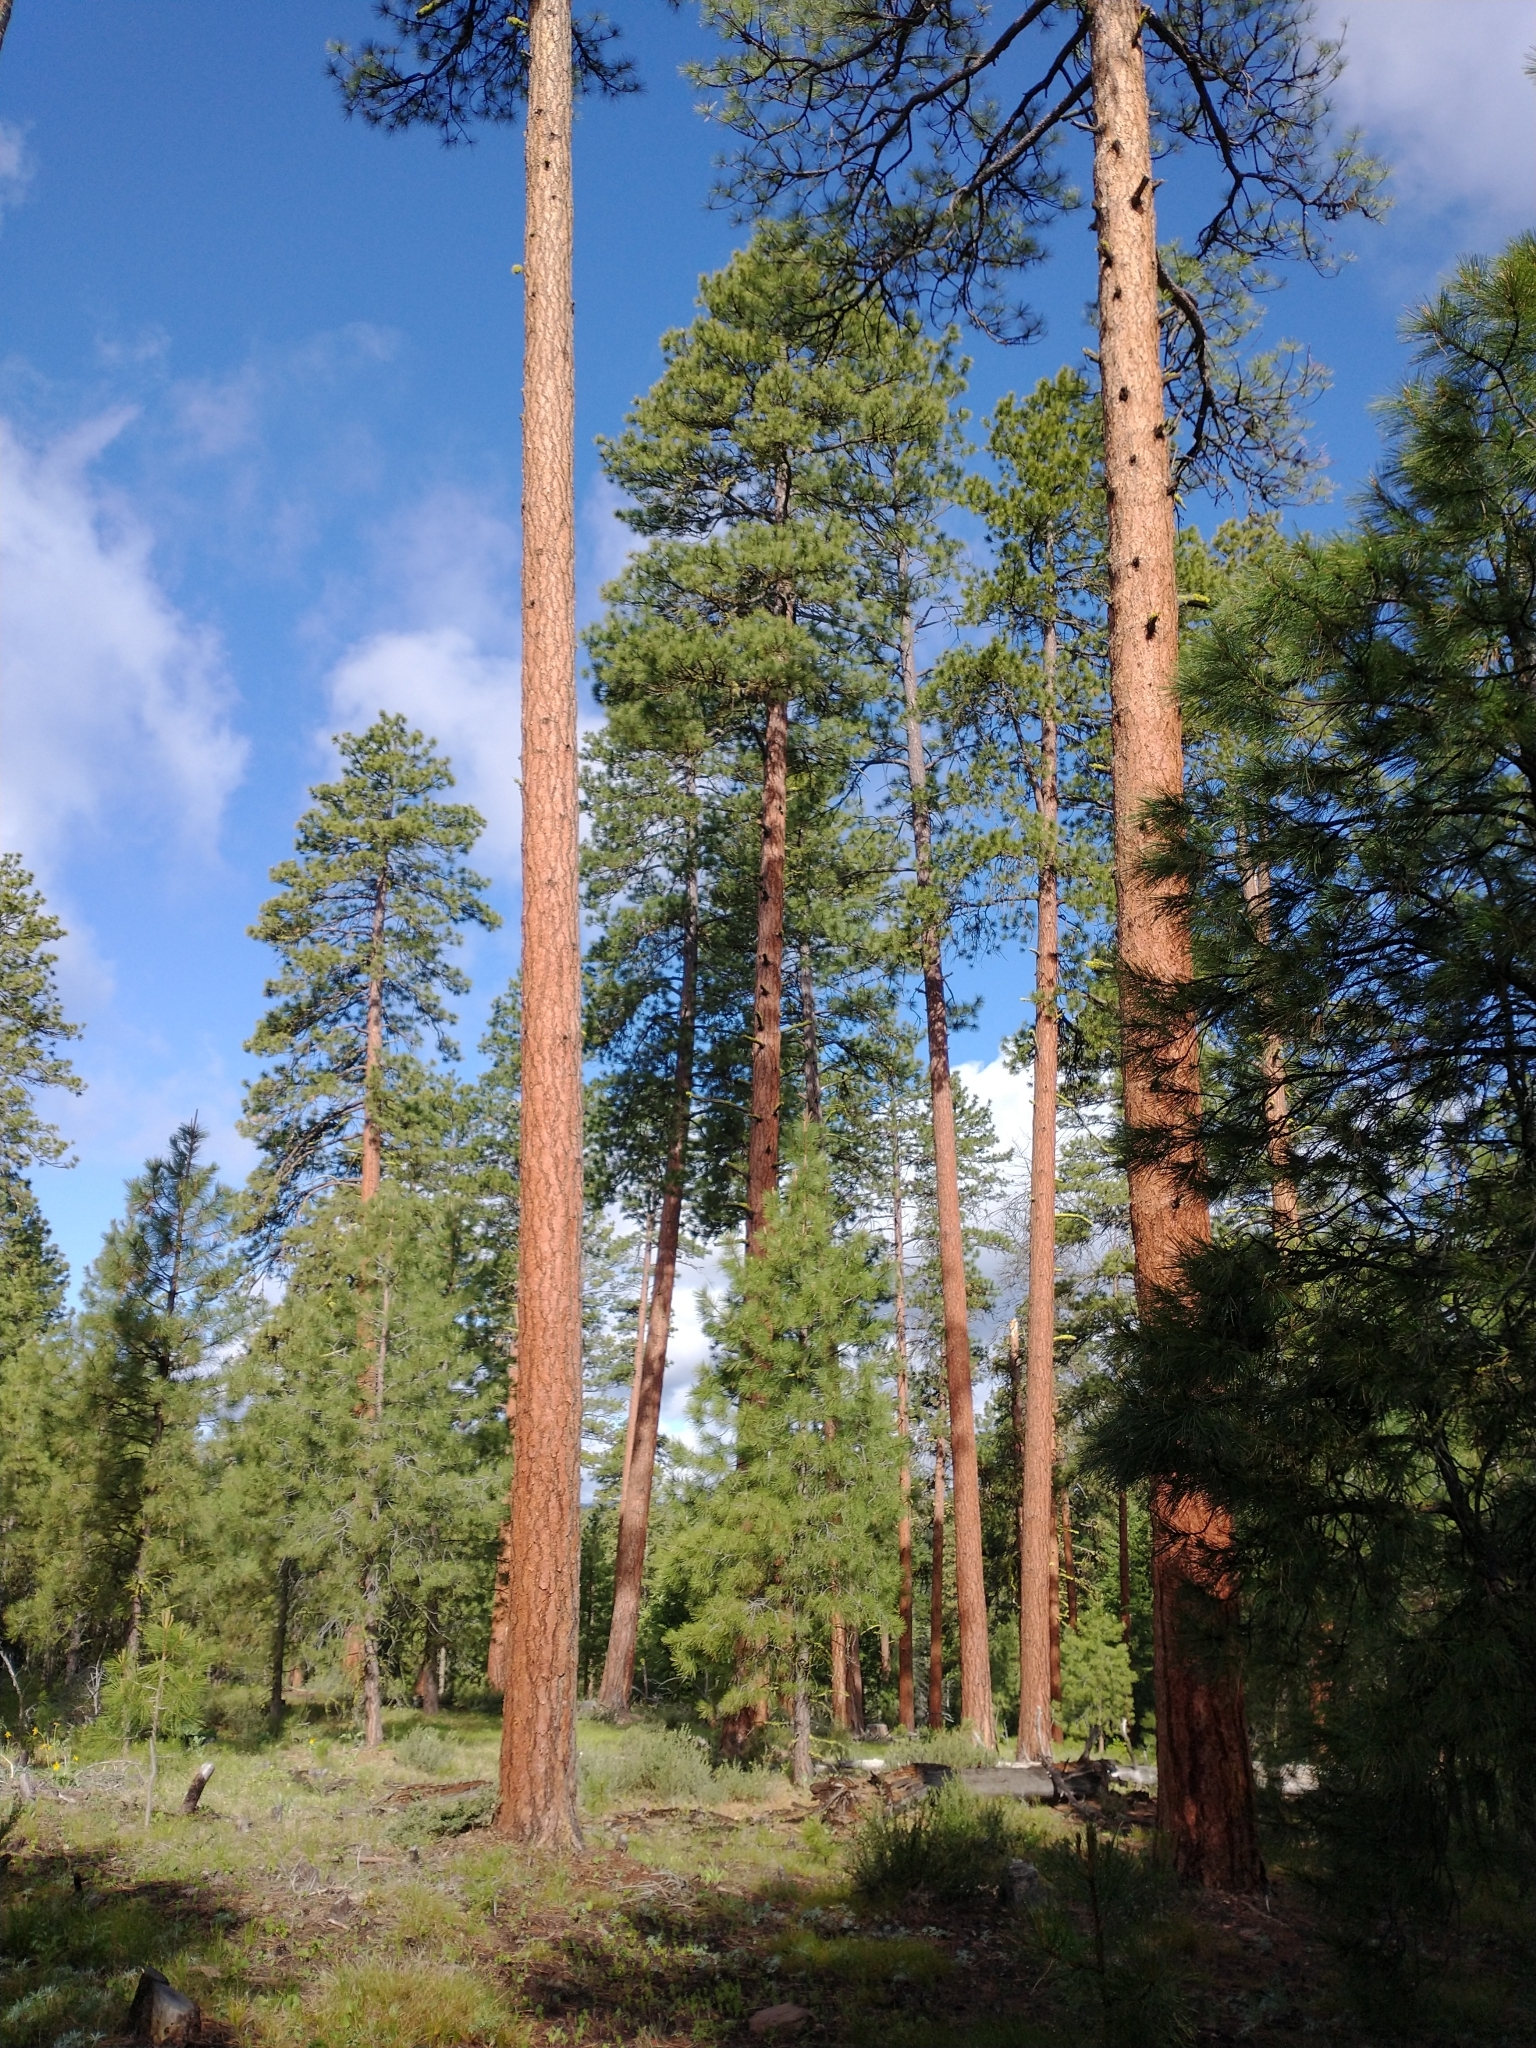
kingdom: Plantae
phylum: Tracheophyta
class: Pinopsida
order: Pinales
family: Pinaceae
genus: Pinus
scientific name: Pinus ponderosa
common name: Western yellow-pine
